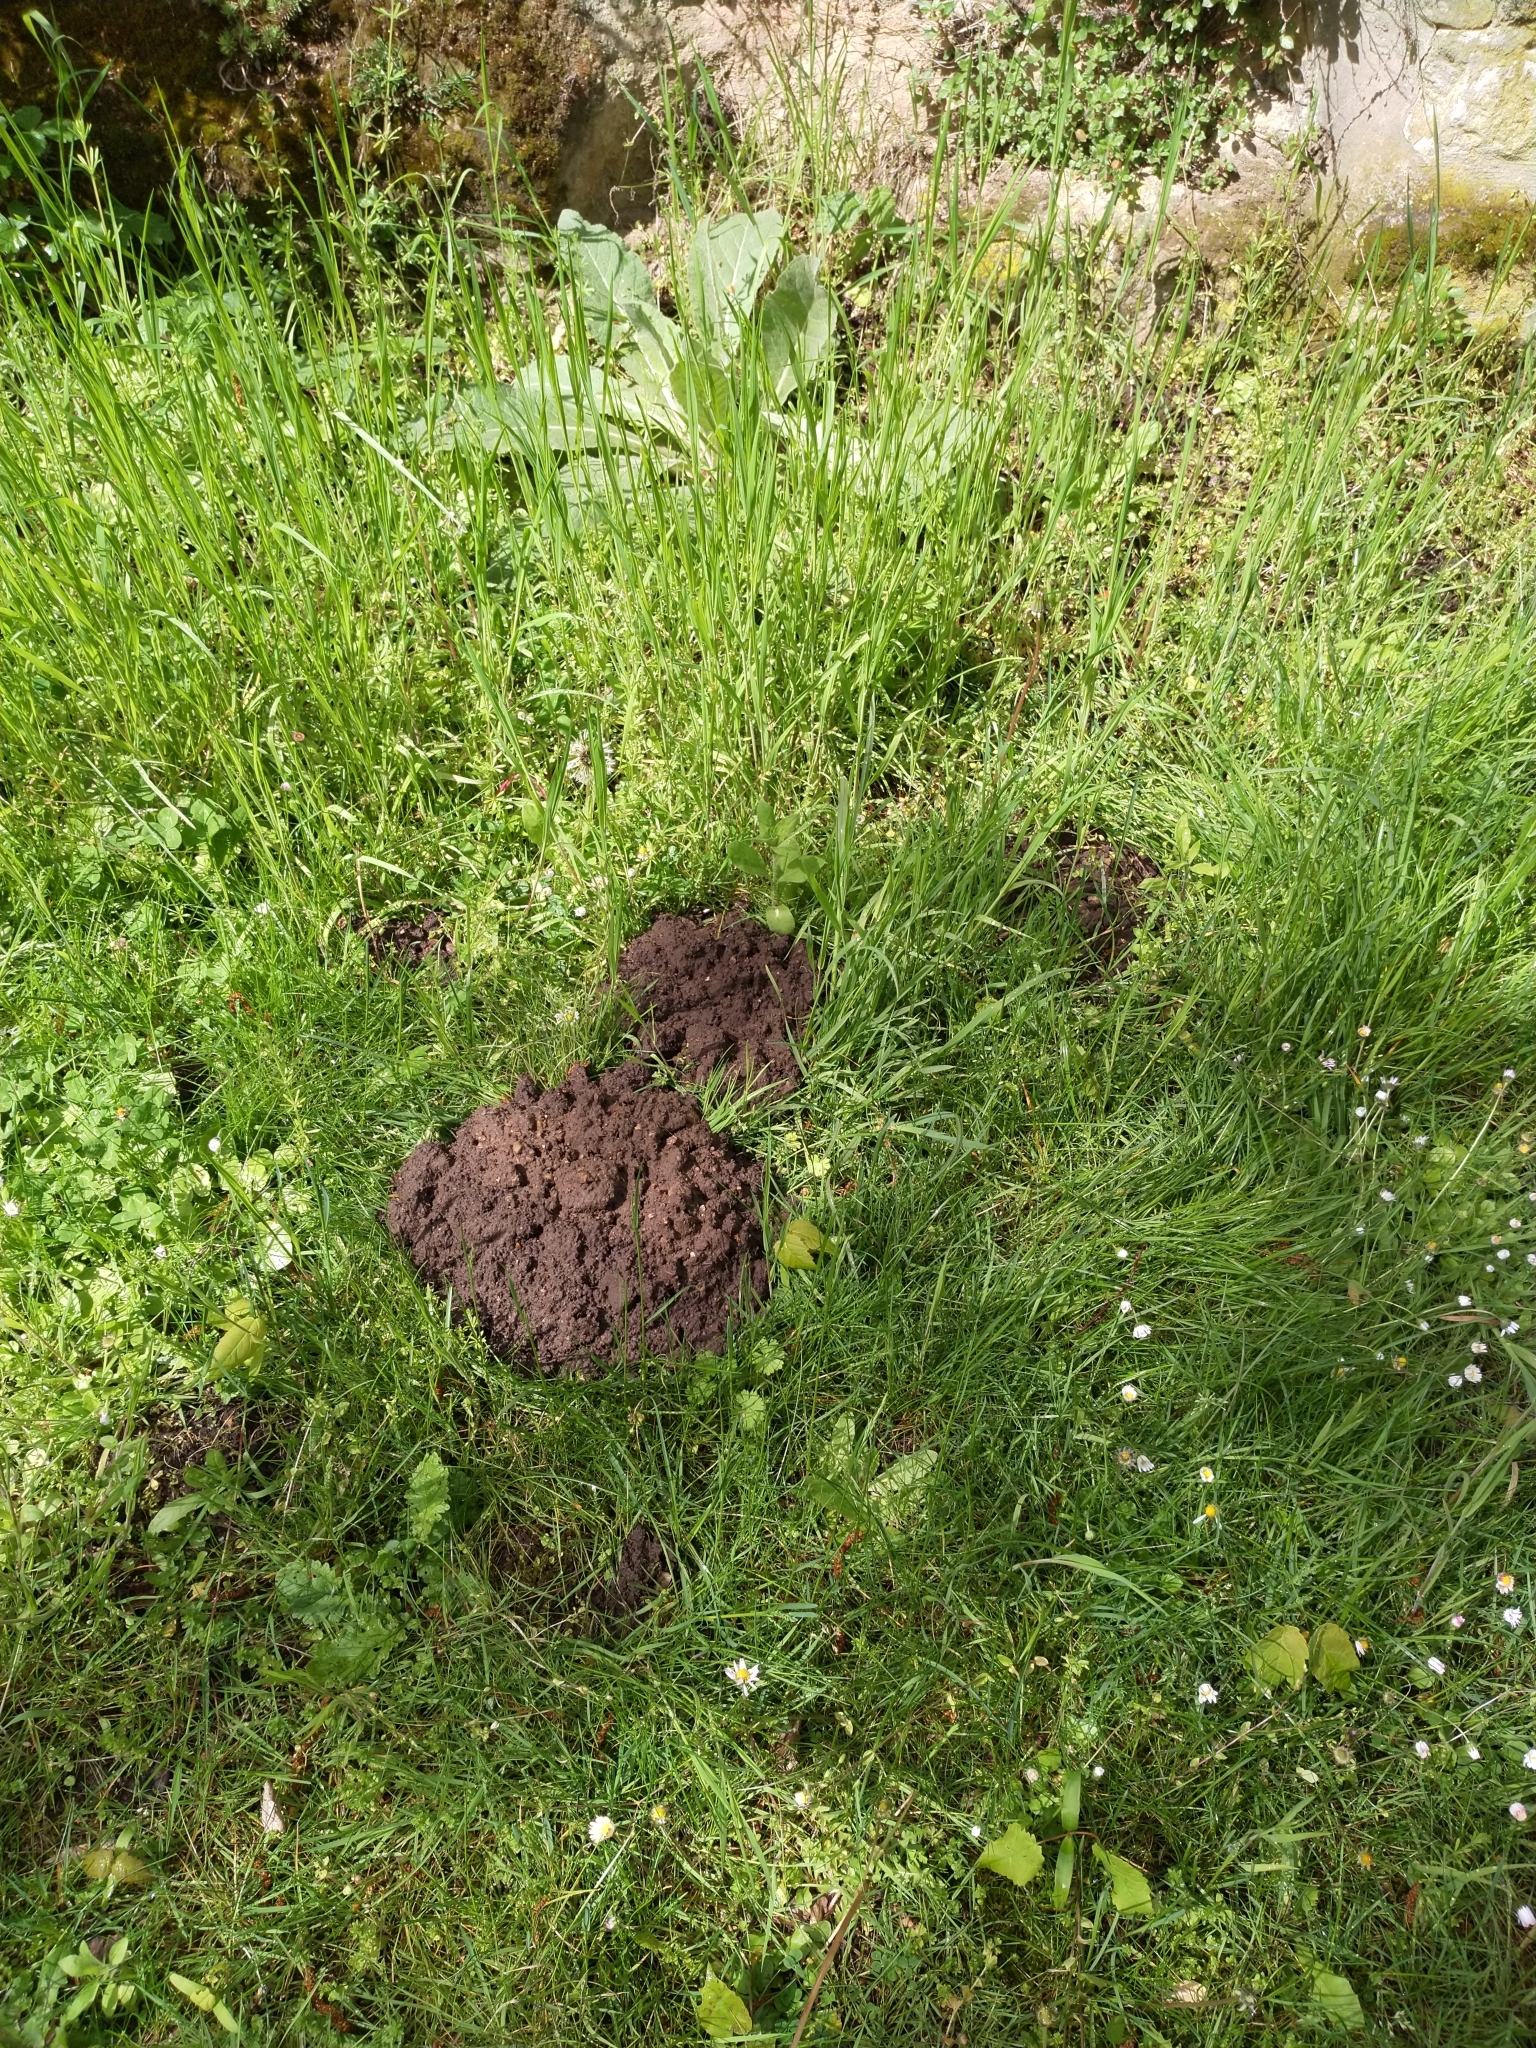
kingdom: Animalia
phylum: Chordata
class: Mammalia
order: Soricomorpha
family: Talpidae
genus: Talpa
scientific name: Talpa europaea
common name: European mole
